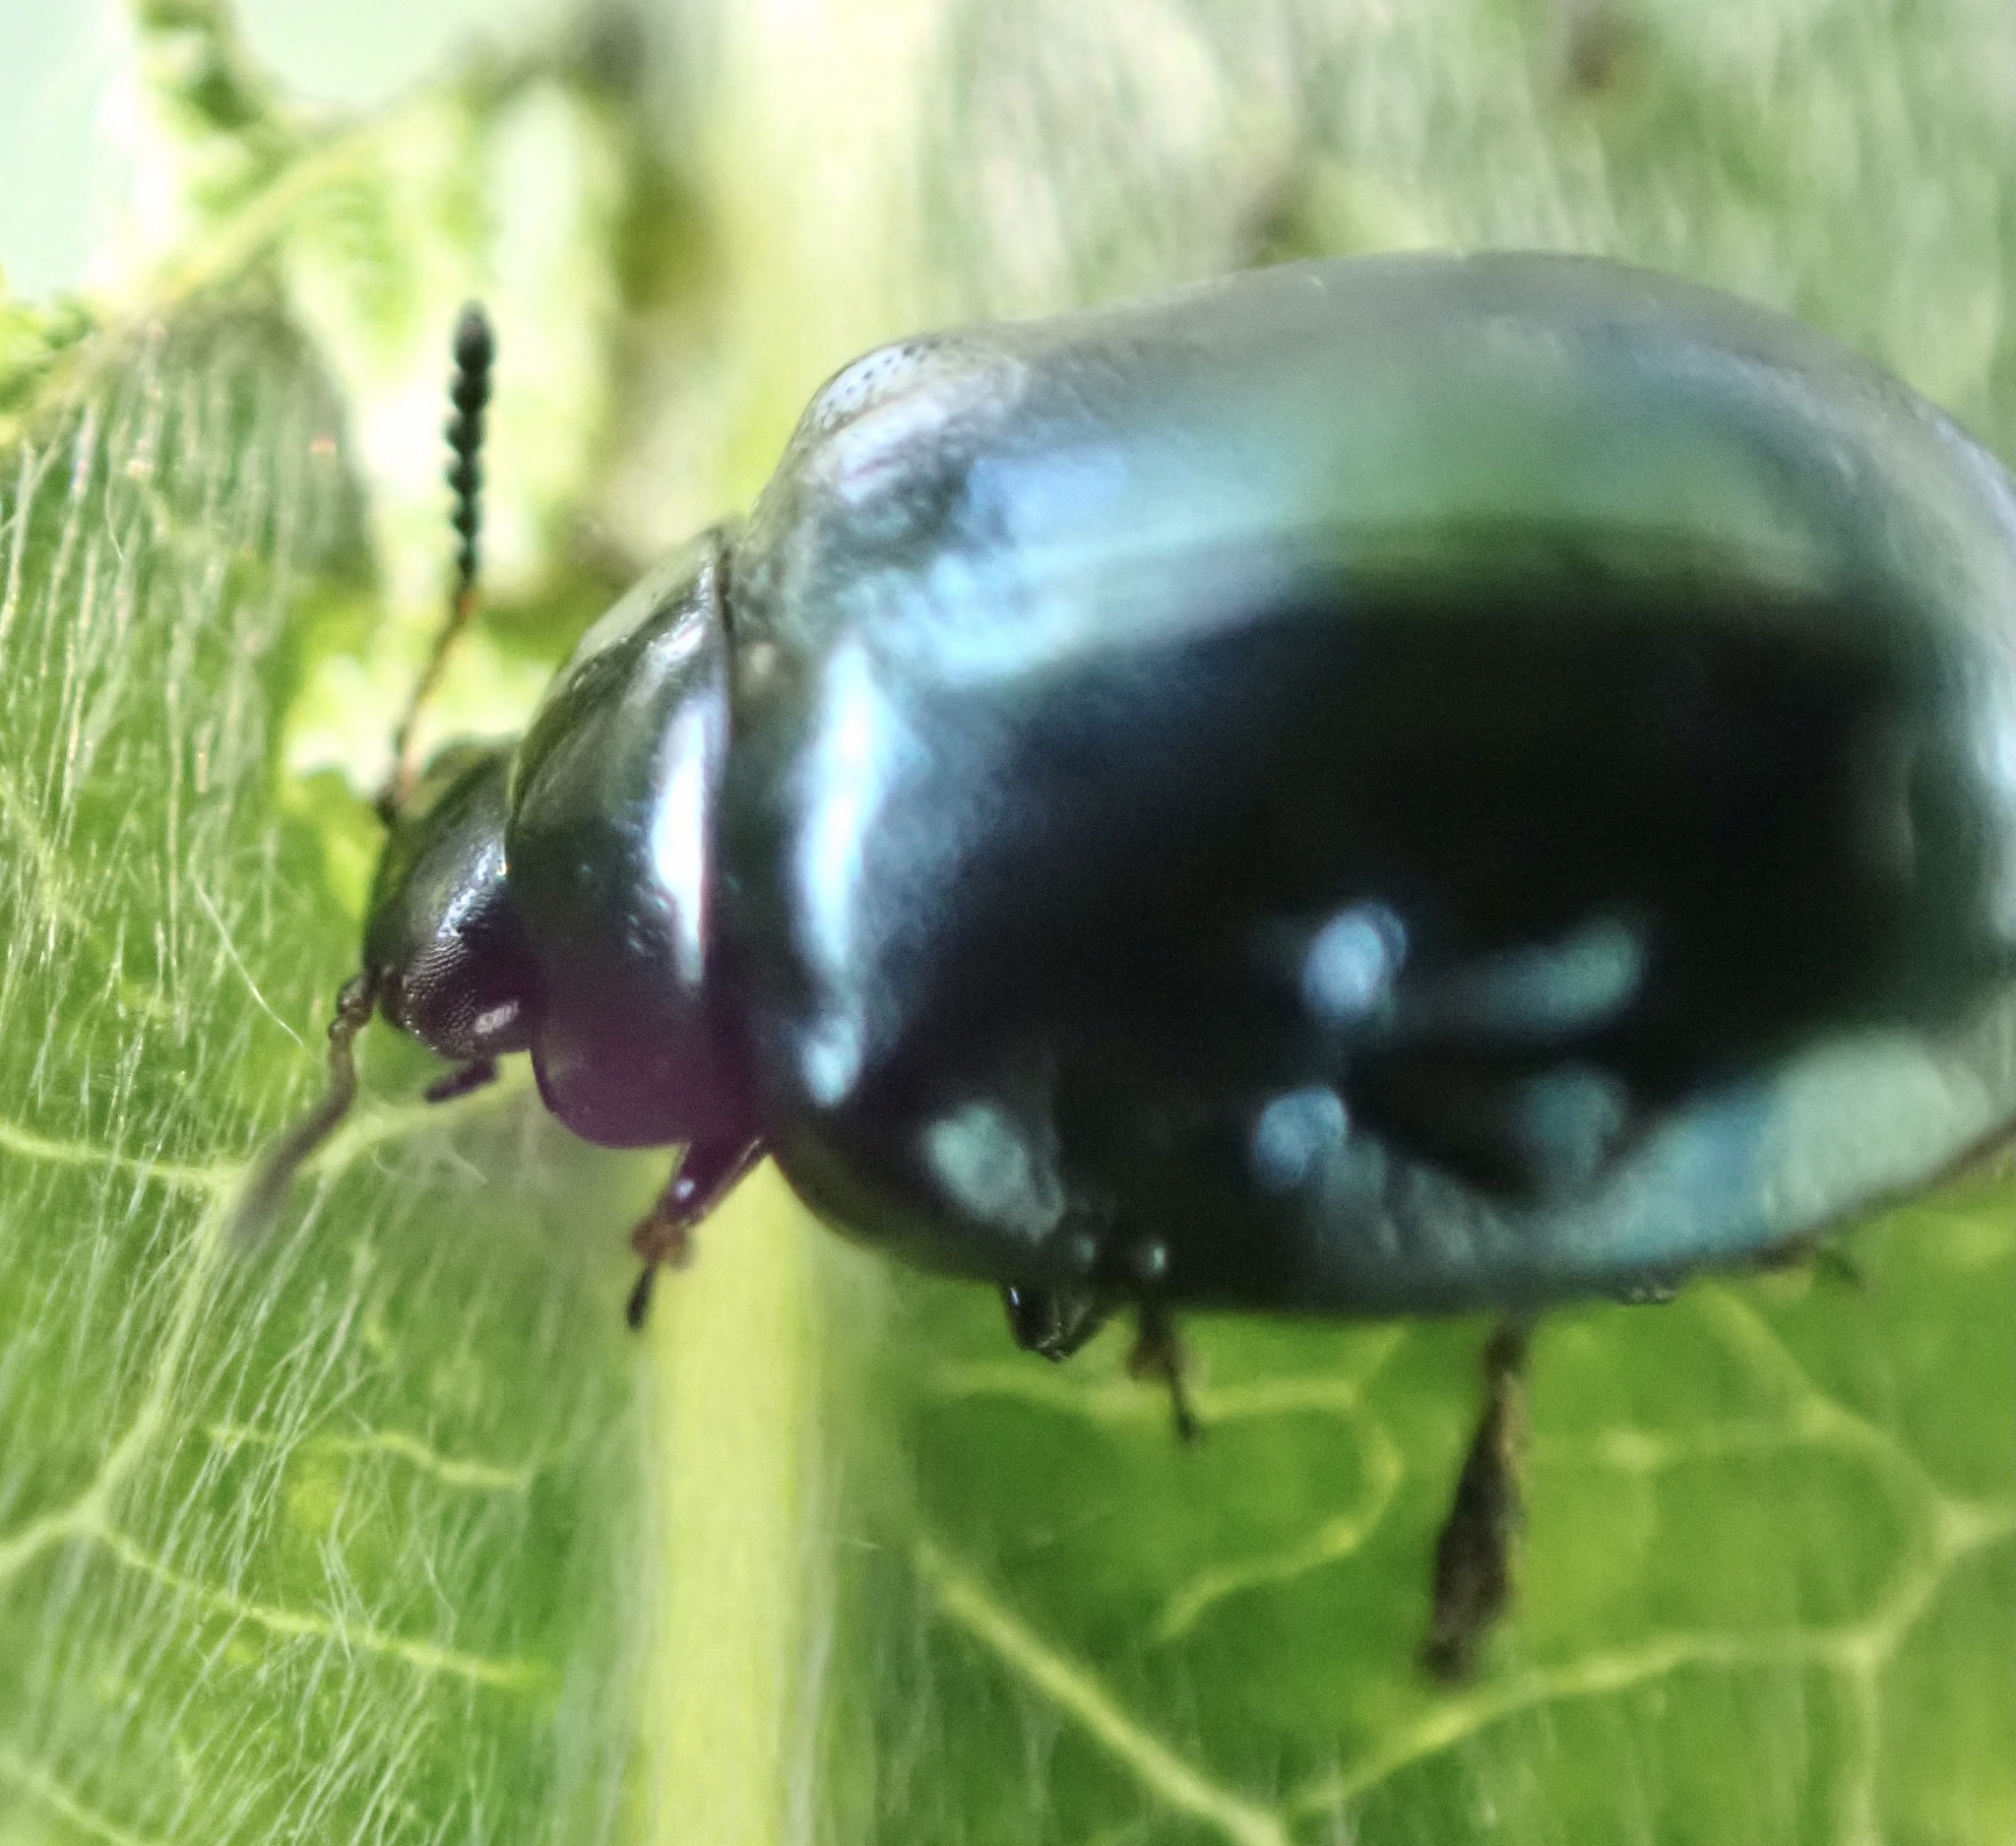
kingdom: Animalia
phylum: Arthropoda
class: Insecta
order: Coleoptera
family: Chrysomelidae
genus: Plagiodera
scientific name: Plagiodera versicolora
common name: Imported willow leaf beetle
